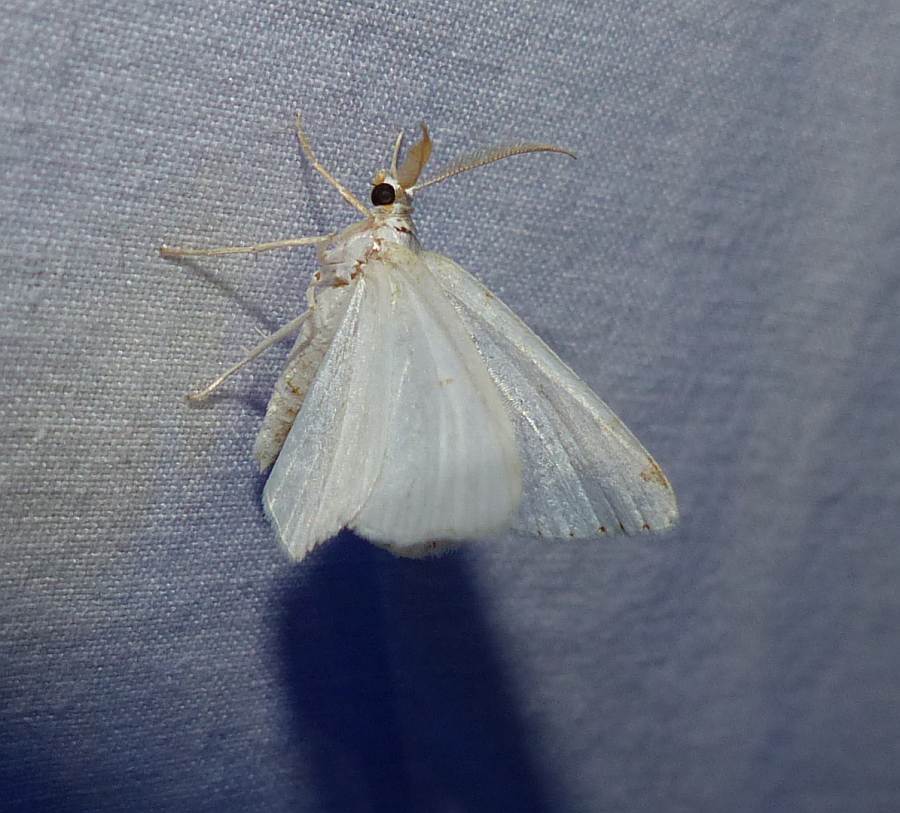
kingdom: Animalia
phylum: Arthropoda
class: Insecta
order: Lepidoptera
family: Geometridae
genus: Macaria
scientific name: Macaria pustularia
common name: Lesser maple spanworm moth
